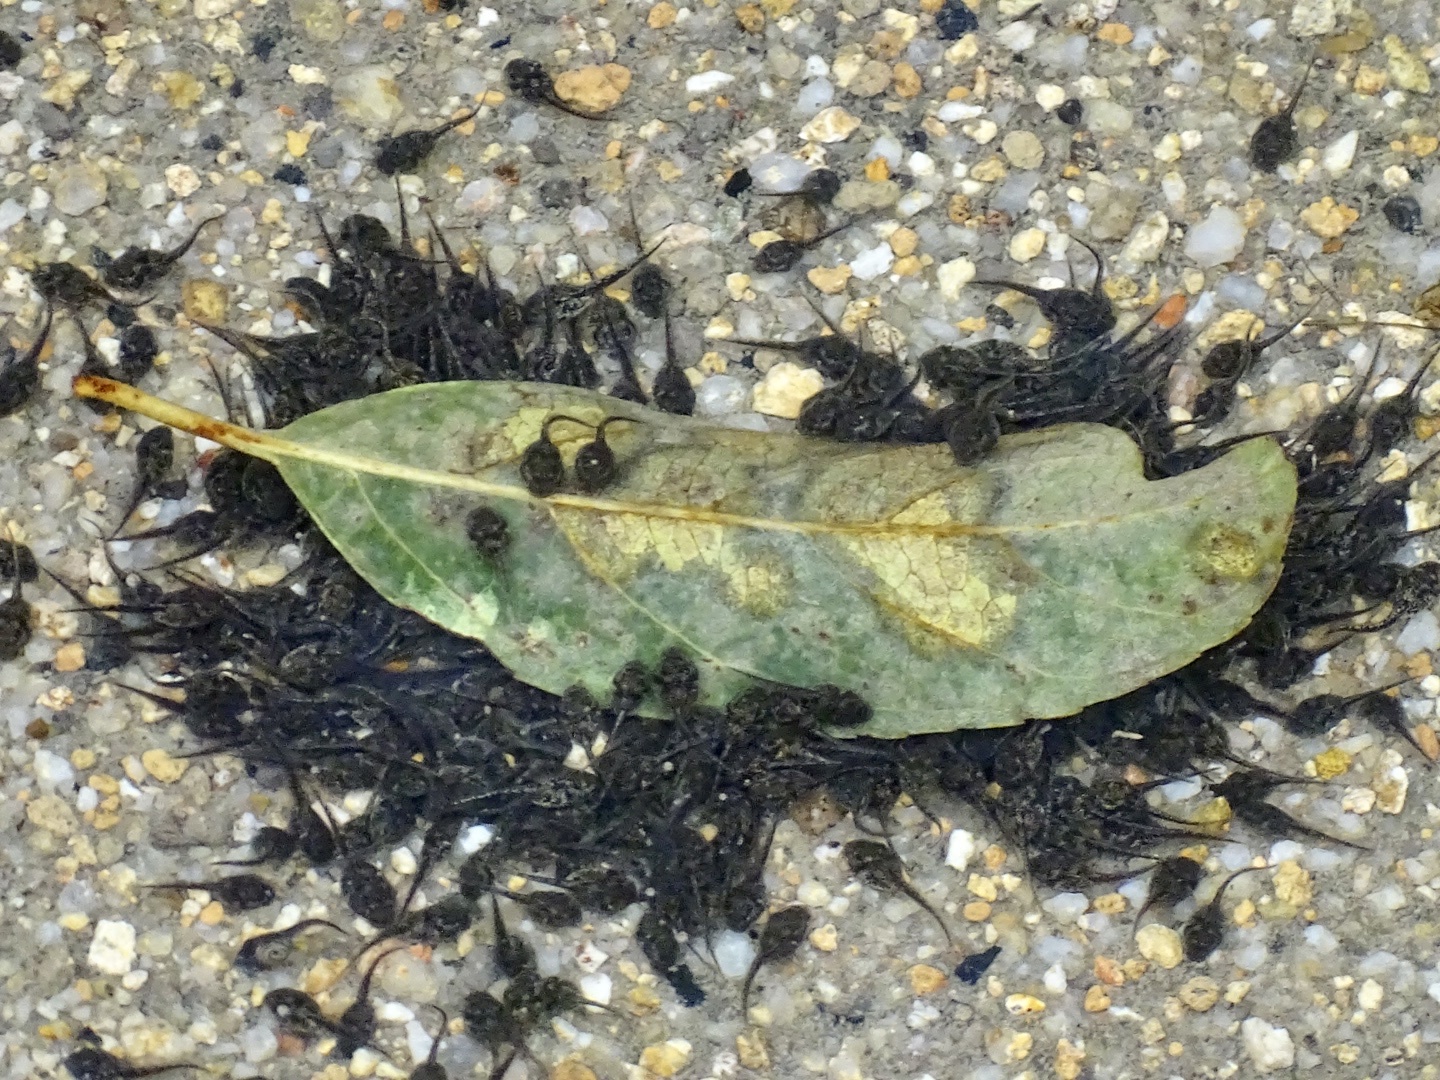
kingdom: Animalia
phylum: Chordata
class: Amphibia
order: Anura
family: Bufonidae
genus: Duttaphrynus
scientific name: Duttaphrynus melanostictus
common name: Common sunda toad
